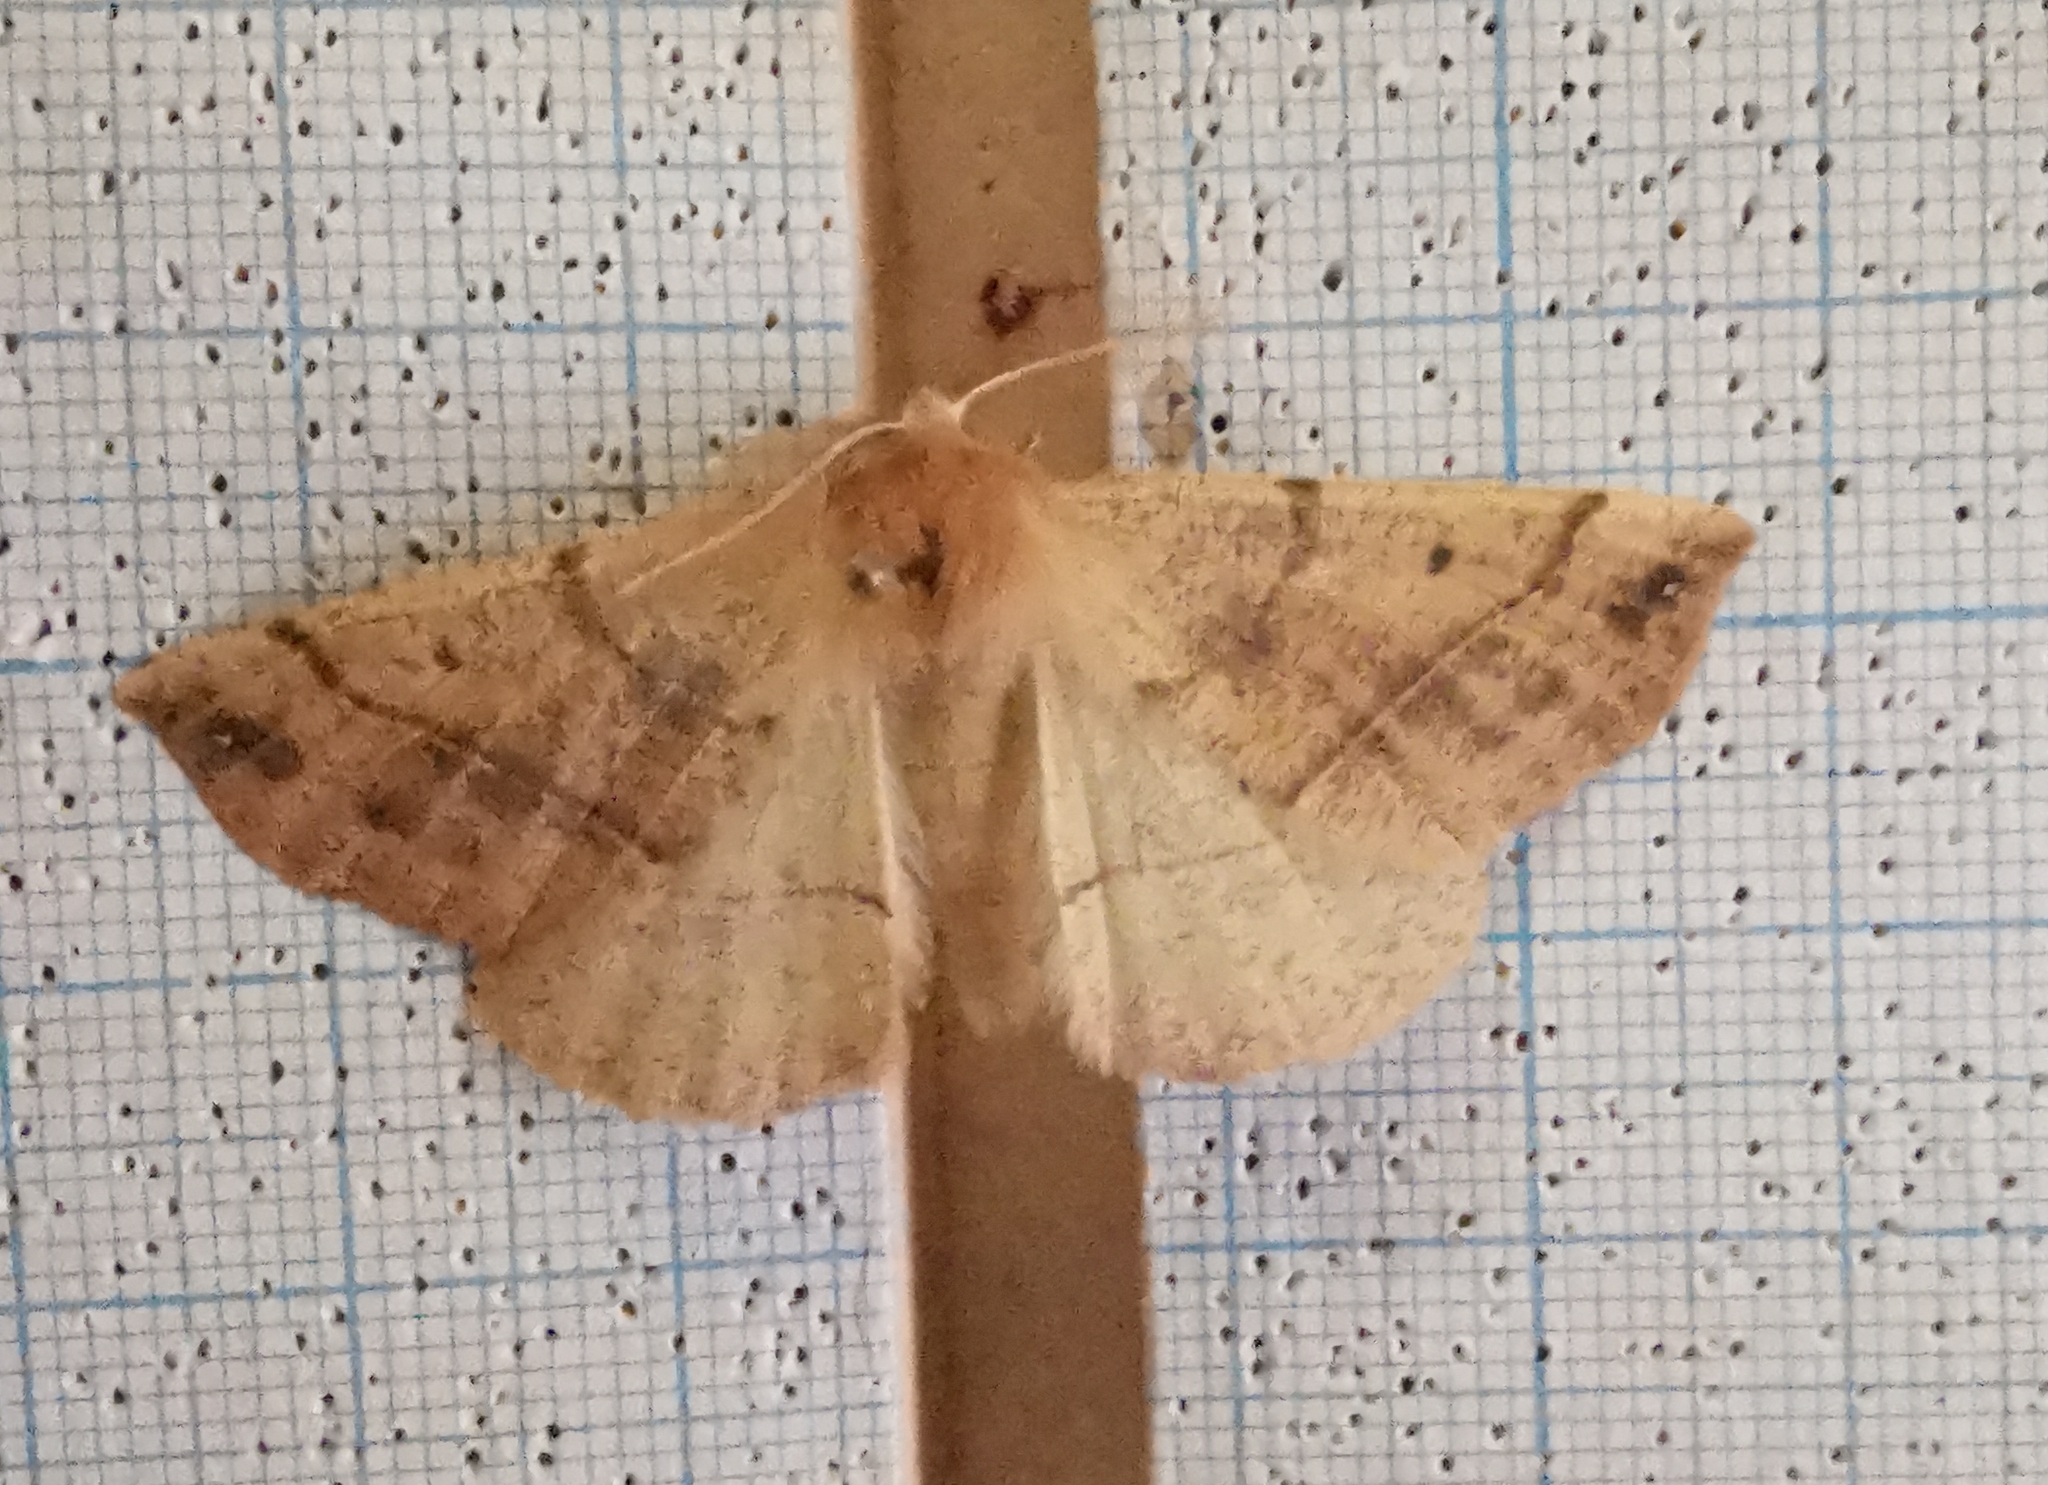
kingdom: Animalia
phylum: Arthropoda
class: Insecta
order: Lepidoptera
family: Geometridae
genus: Colotois
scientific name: Colotois pennaria
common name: Feathered thorn
